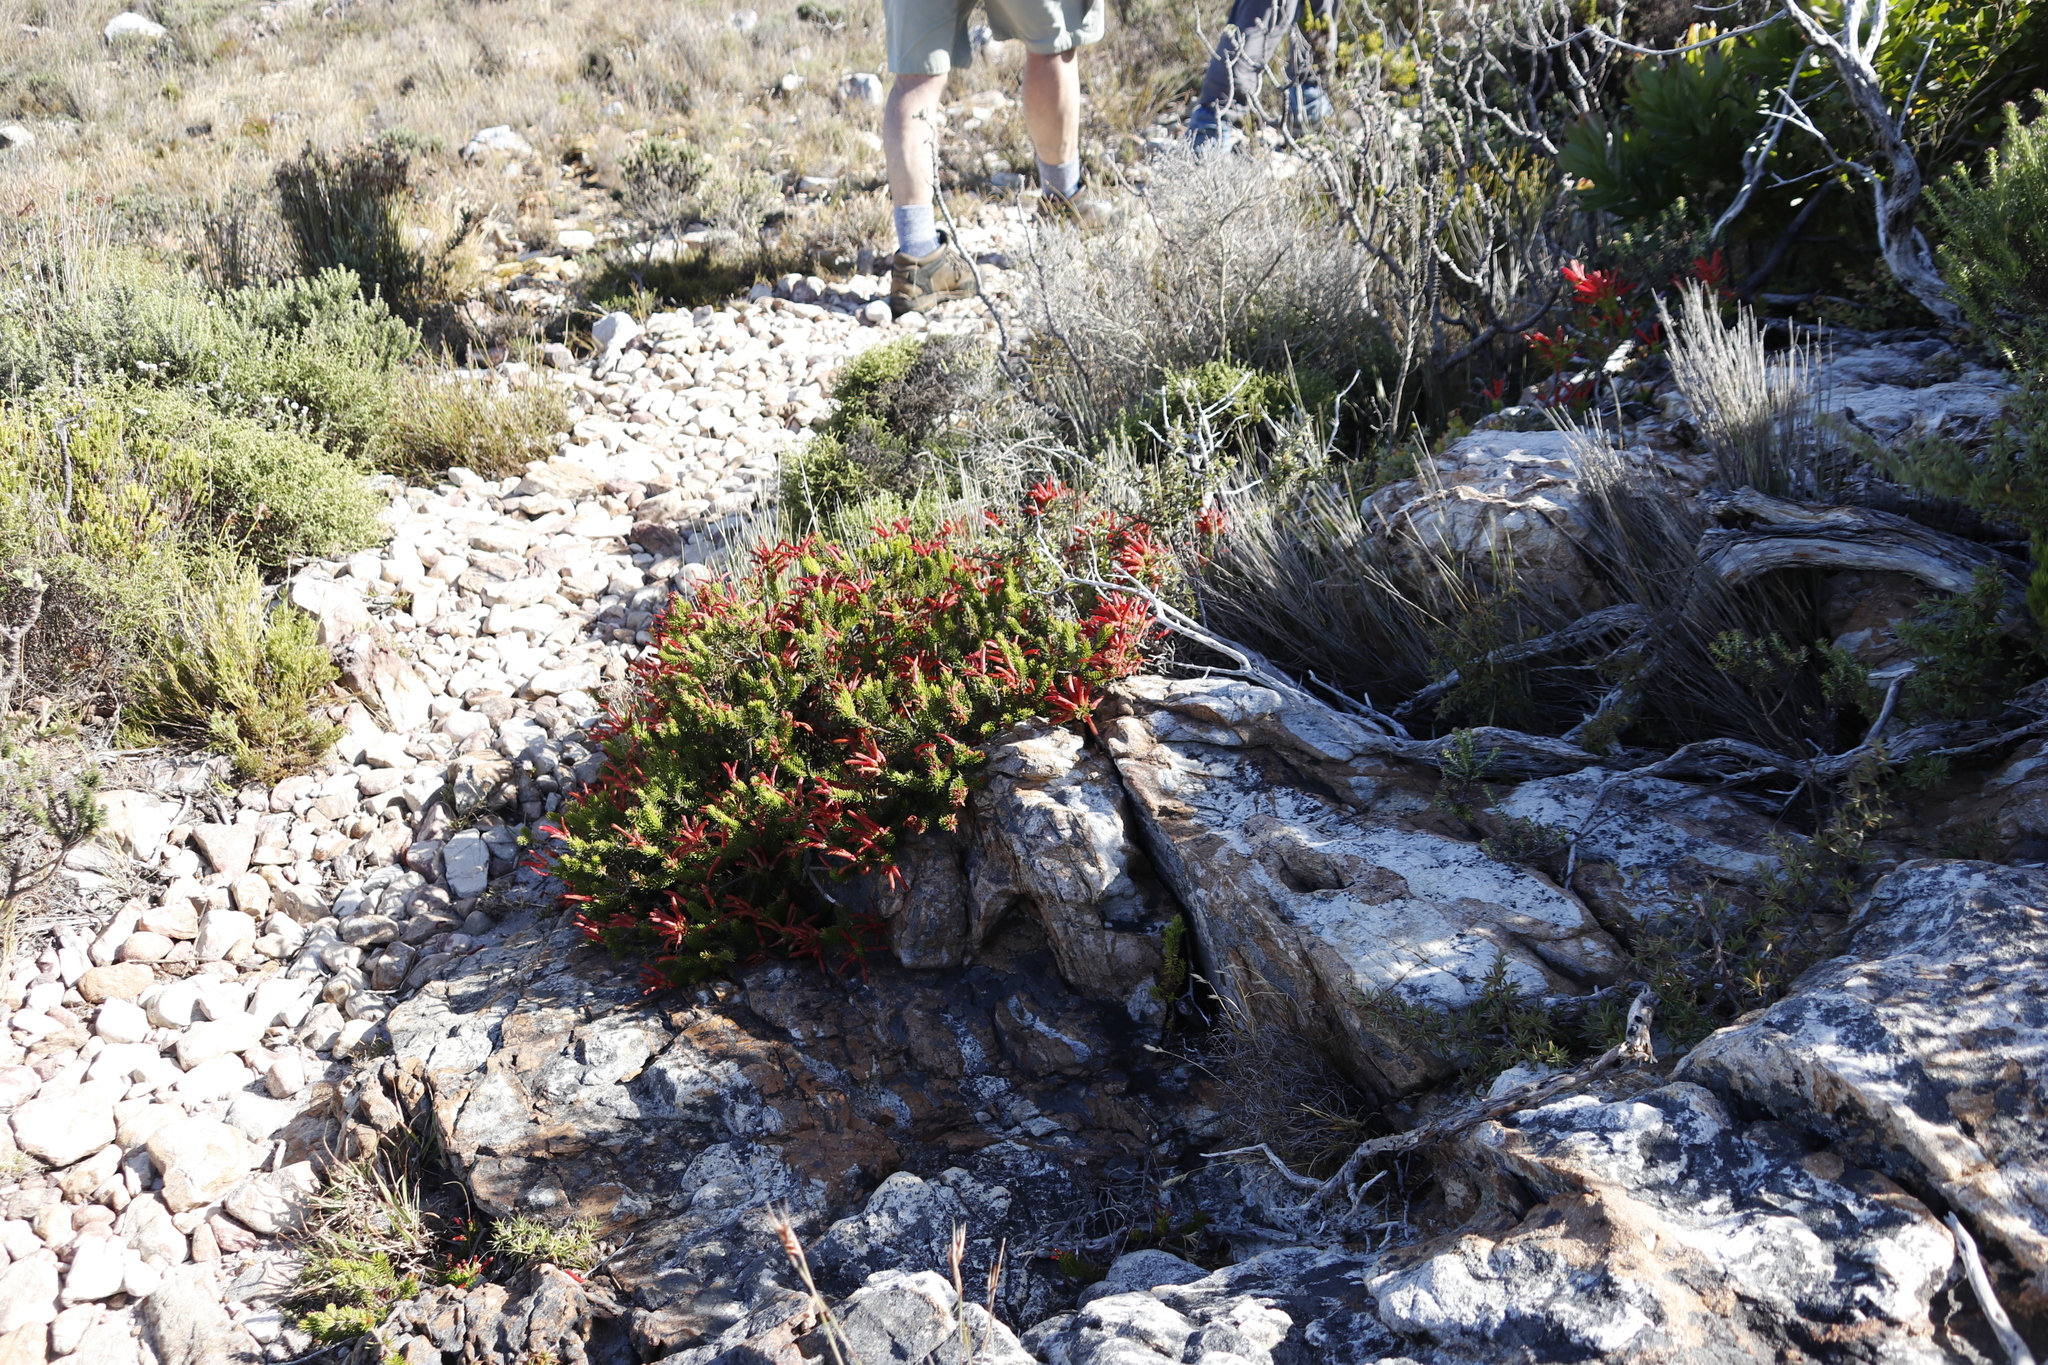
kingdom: Plantae
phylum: Tracheophyta
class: Magnoliopsida
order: Ericales
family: Ericaceae
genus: Erica
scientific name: Erica nevillei
